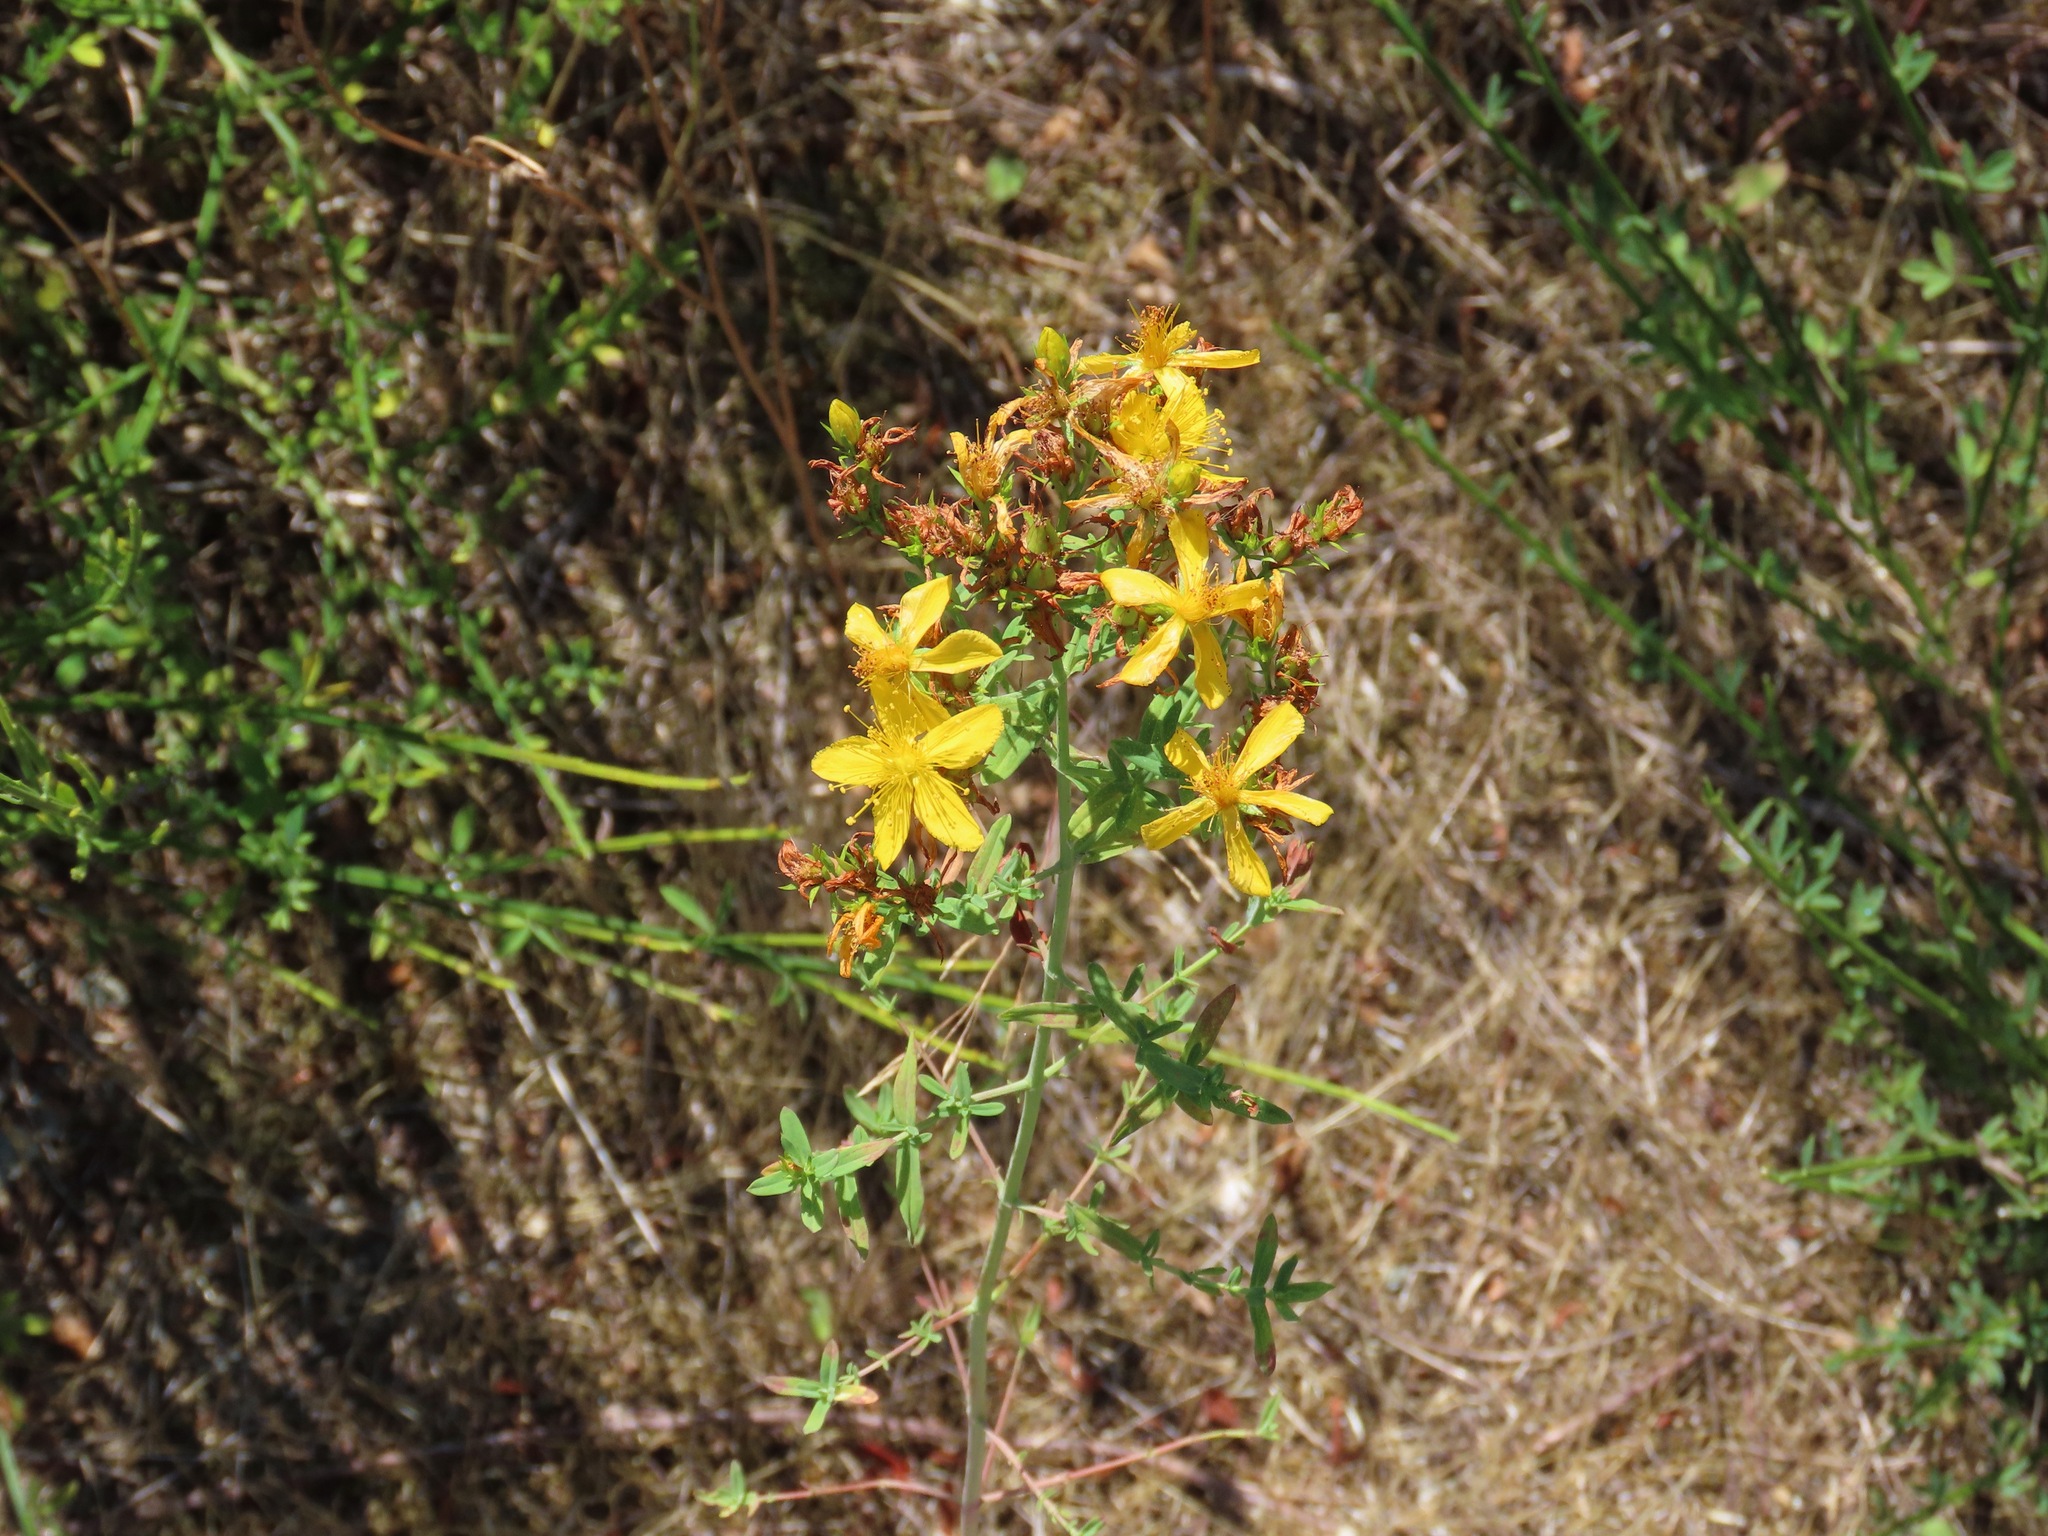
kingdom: Plantae
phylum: Tracheophyta
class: Magnoliopsida
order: Malpighiales
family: Hypericaceae
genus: Hypericum
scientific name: Hypericum perforatum
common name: Common st. johnswort
